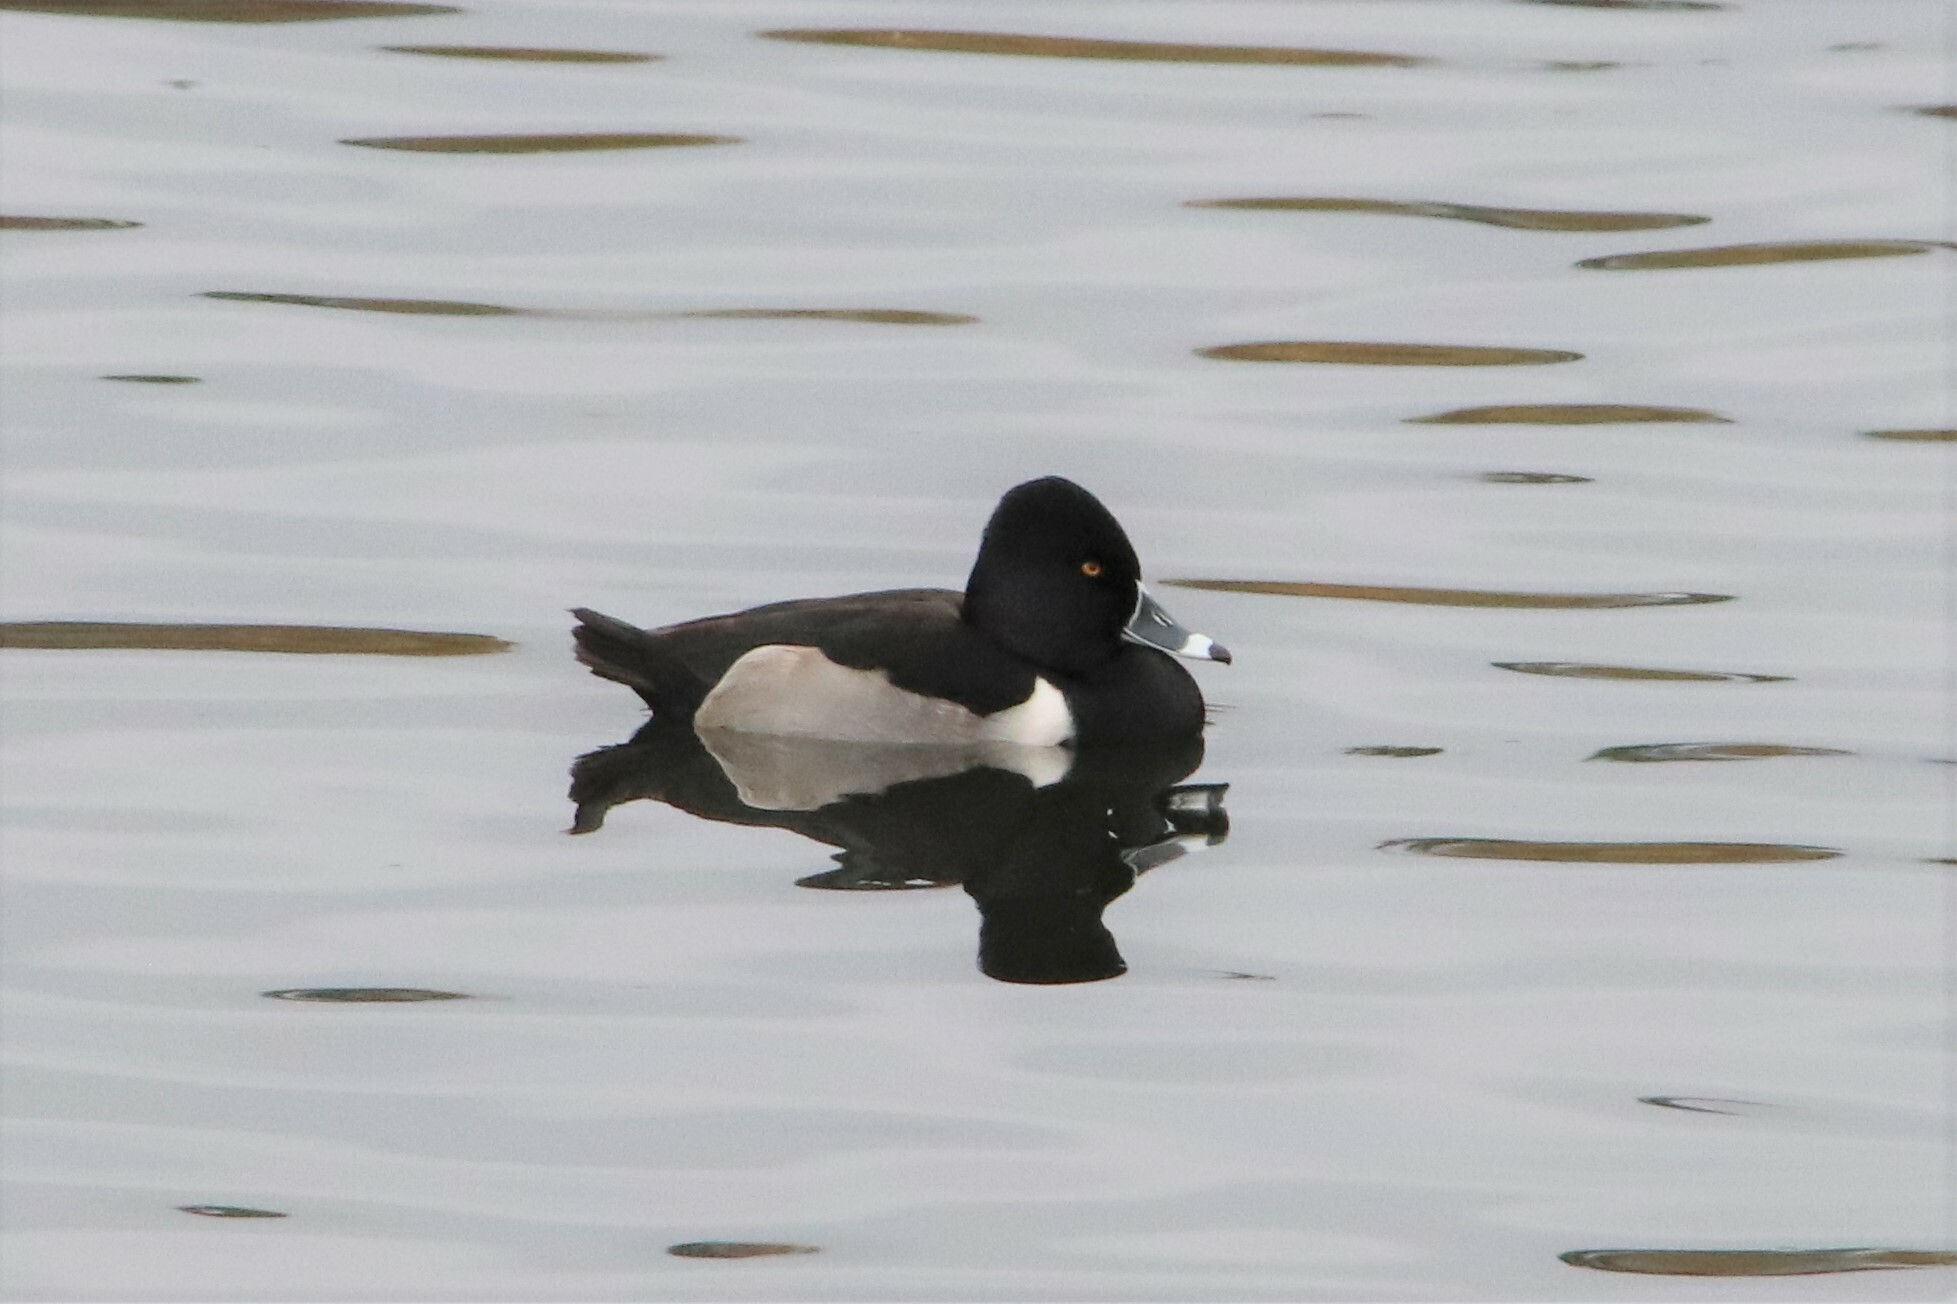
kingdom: Animalia
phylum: Chordata
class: Aves
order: Anseriformes
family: Anatidae
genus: Aythya
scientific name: Aythya collaris
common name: Ring-necked duck
